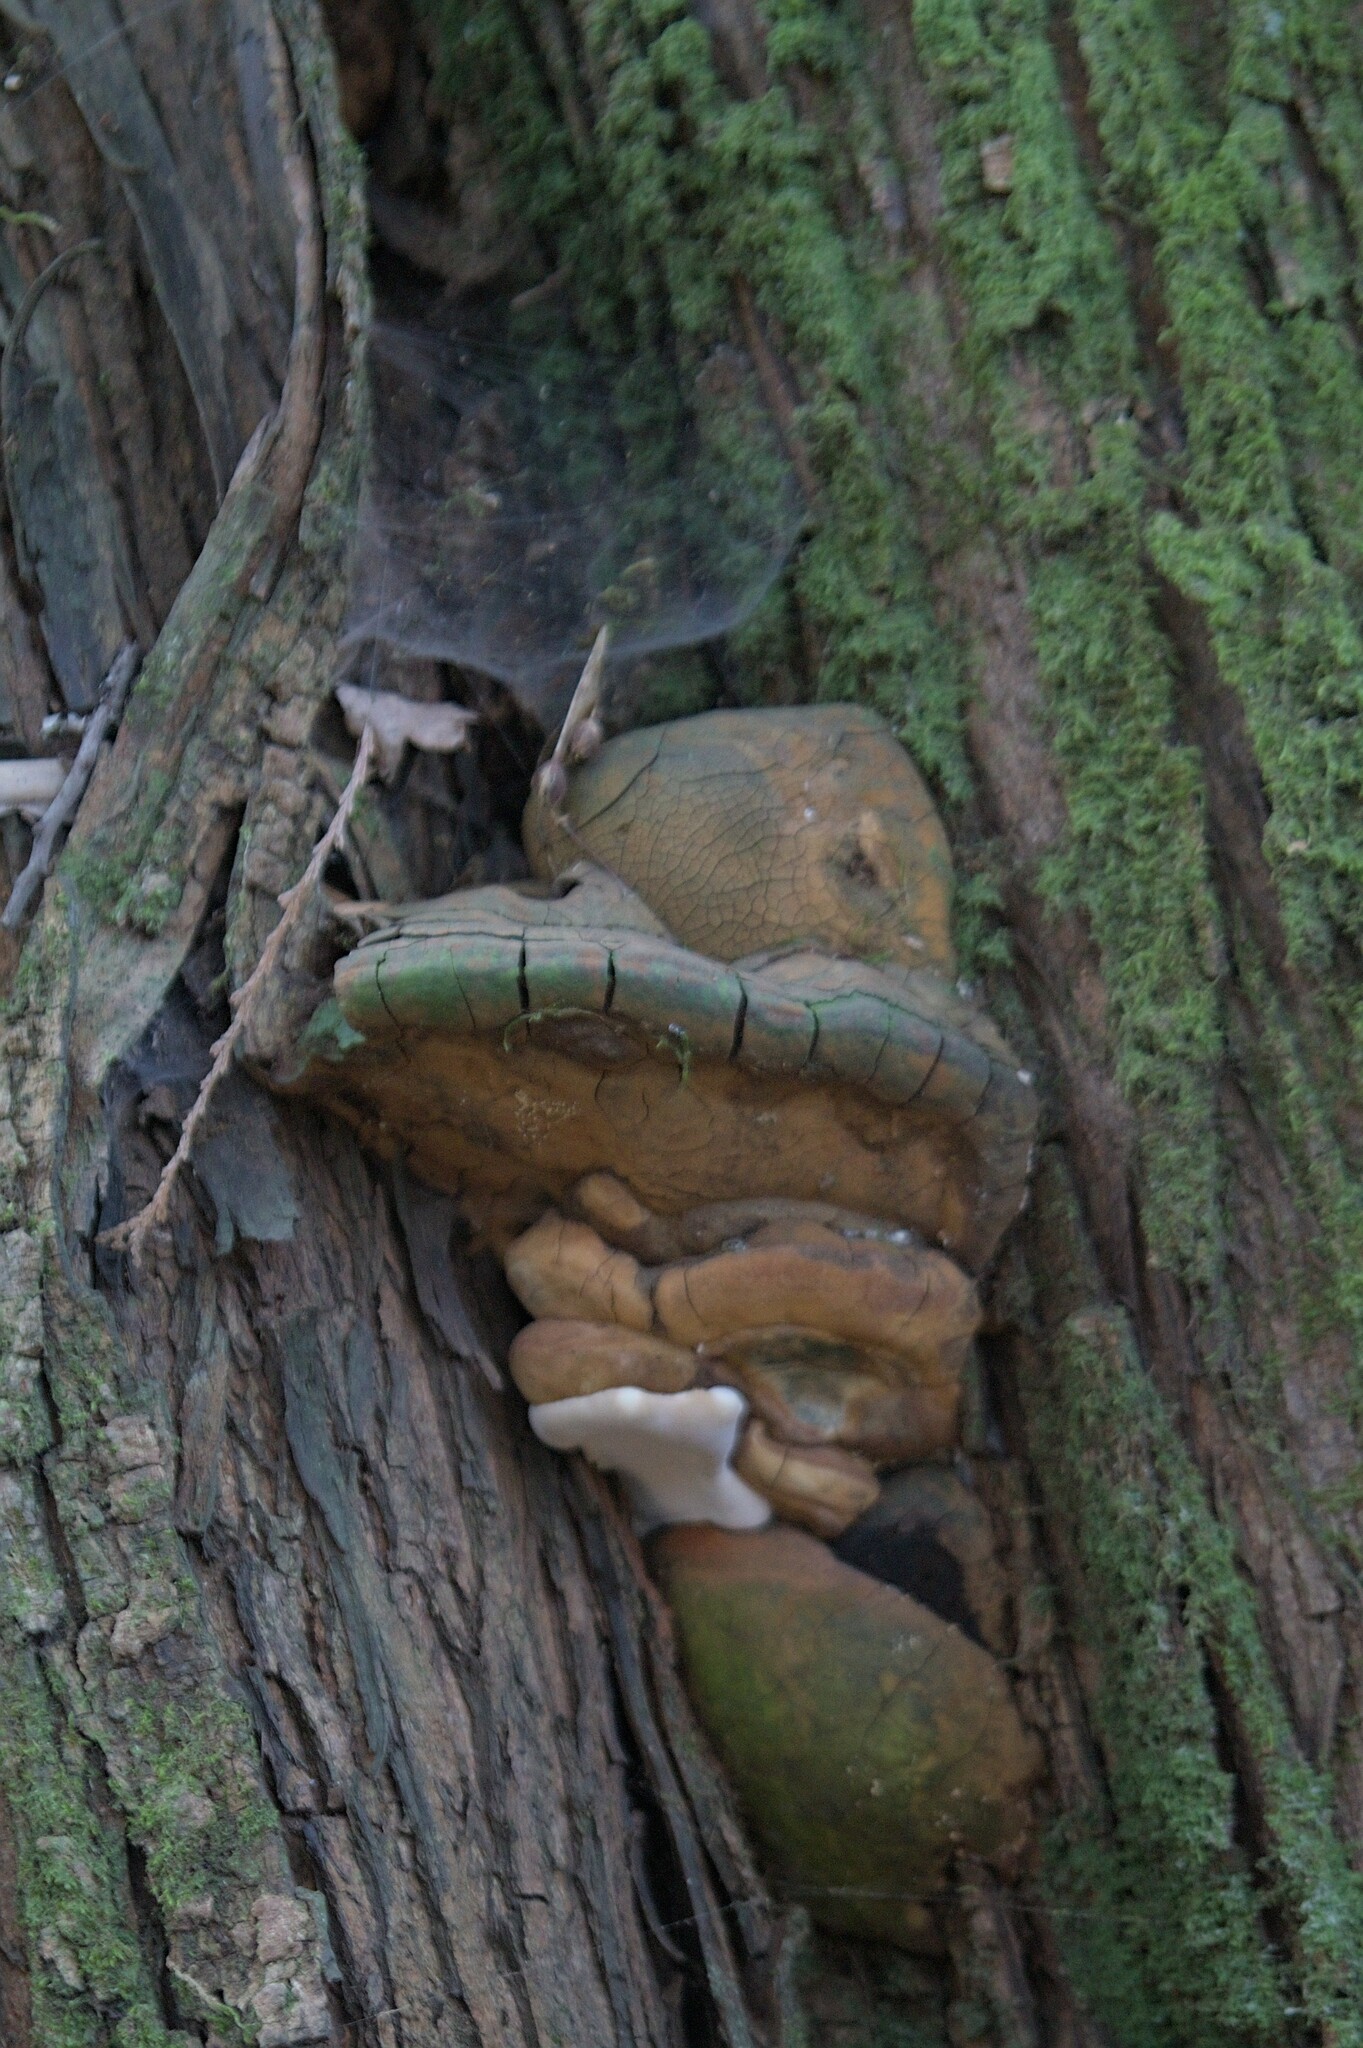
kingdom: Fungi
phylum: Basidiomycota
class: Agaricomycetes
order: Polyporales
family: Polyporaceae
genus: Ganoderma
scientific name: Ganoderma applanatum
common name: Artist's bracket
